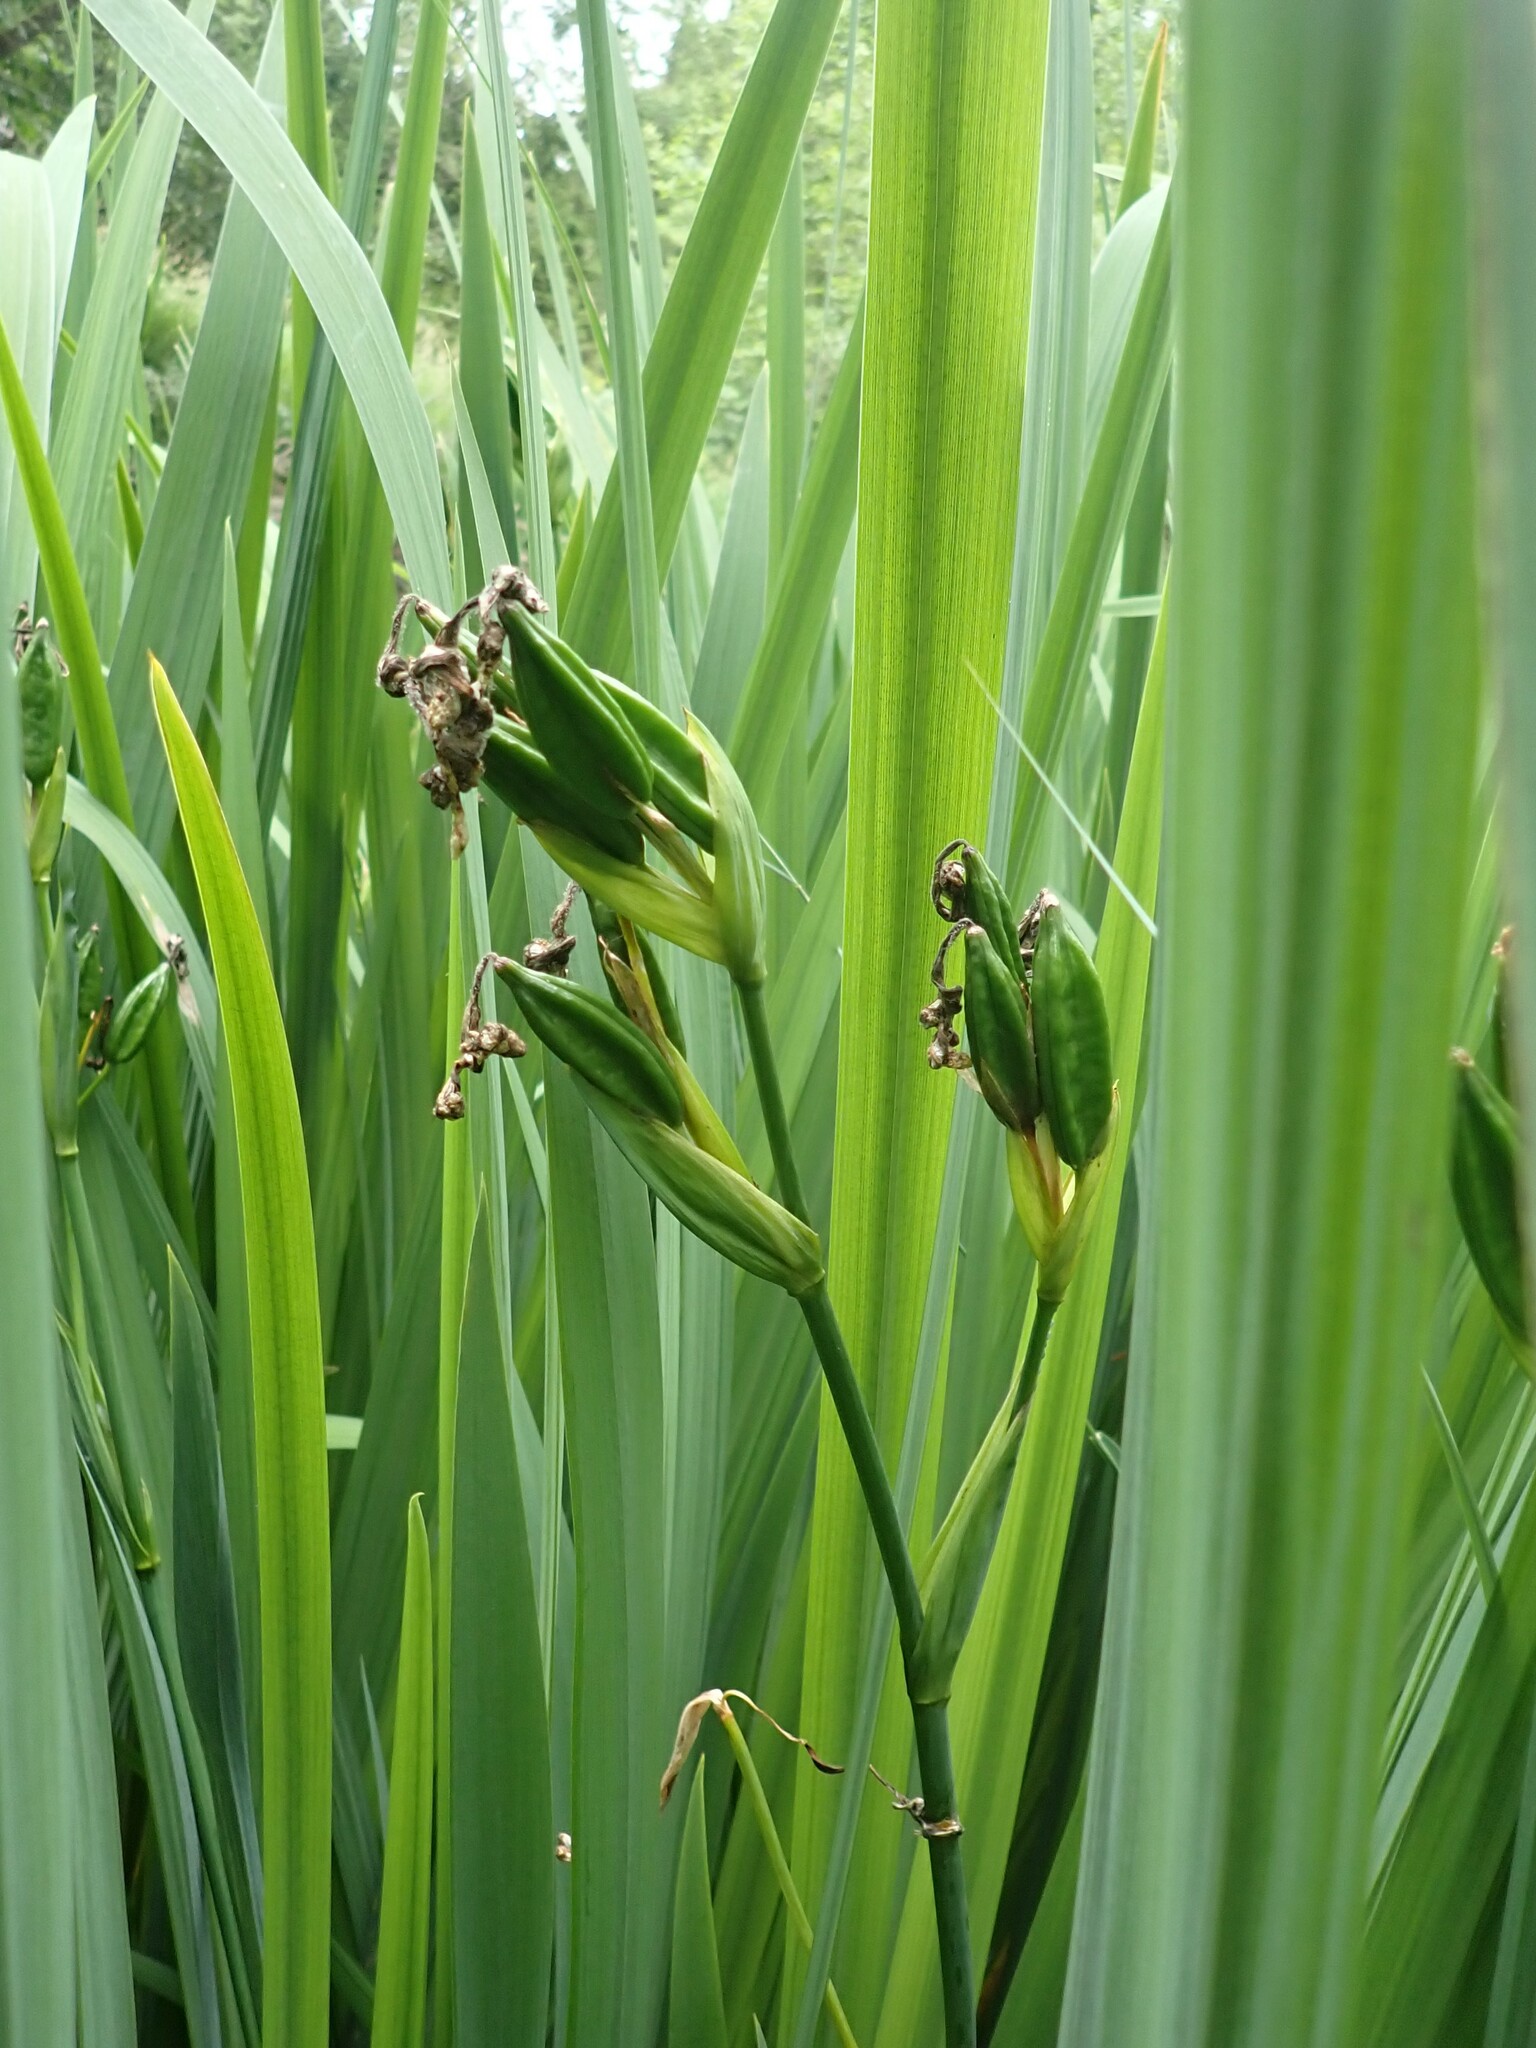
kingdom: Plantae
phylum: Tracheophyta
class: Liliopsida
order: Asparagales
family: Iridaceae
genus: Iris
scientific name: Iris pseudacorus
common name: Yellow flag
